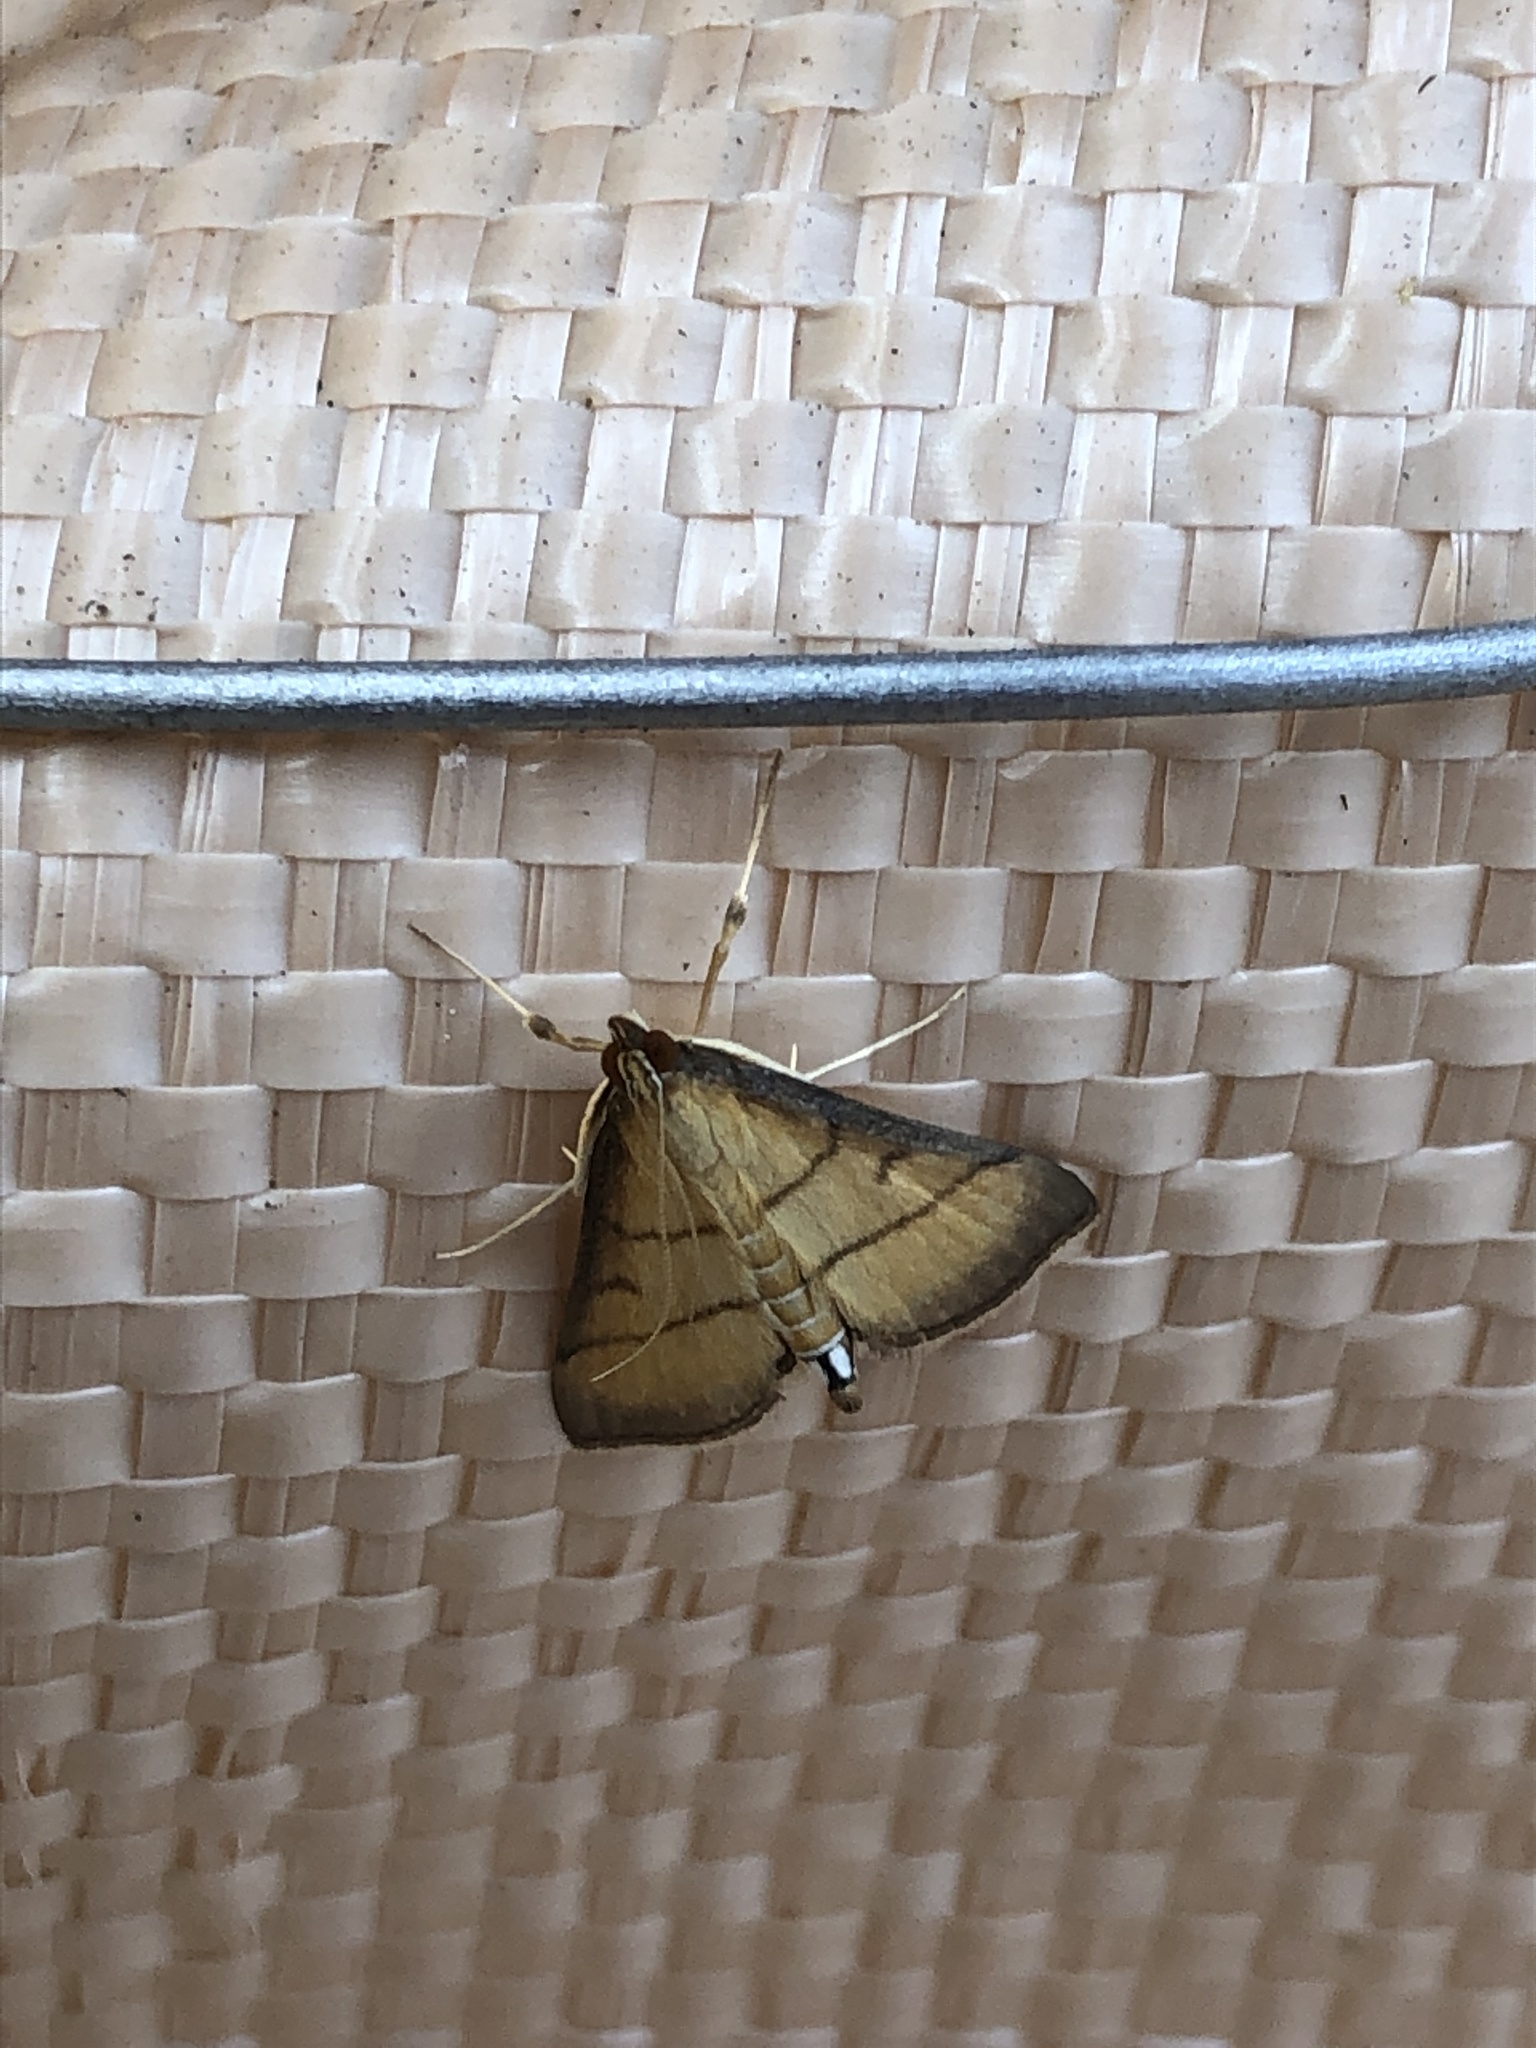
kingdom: Animalia
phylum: Arthropoda
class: Insecta
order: Lepidoptera
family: Crambidae
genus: Cnaphalocrocis
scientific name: Cnaphalocrocis medinalis
